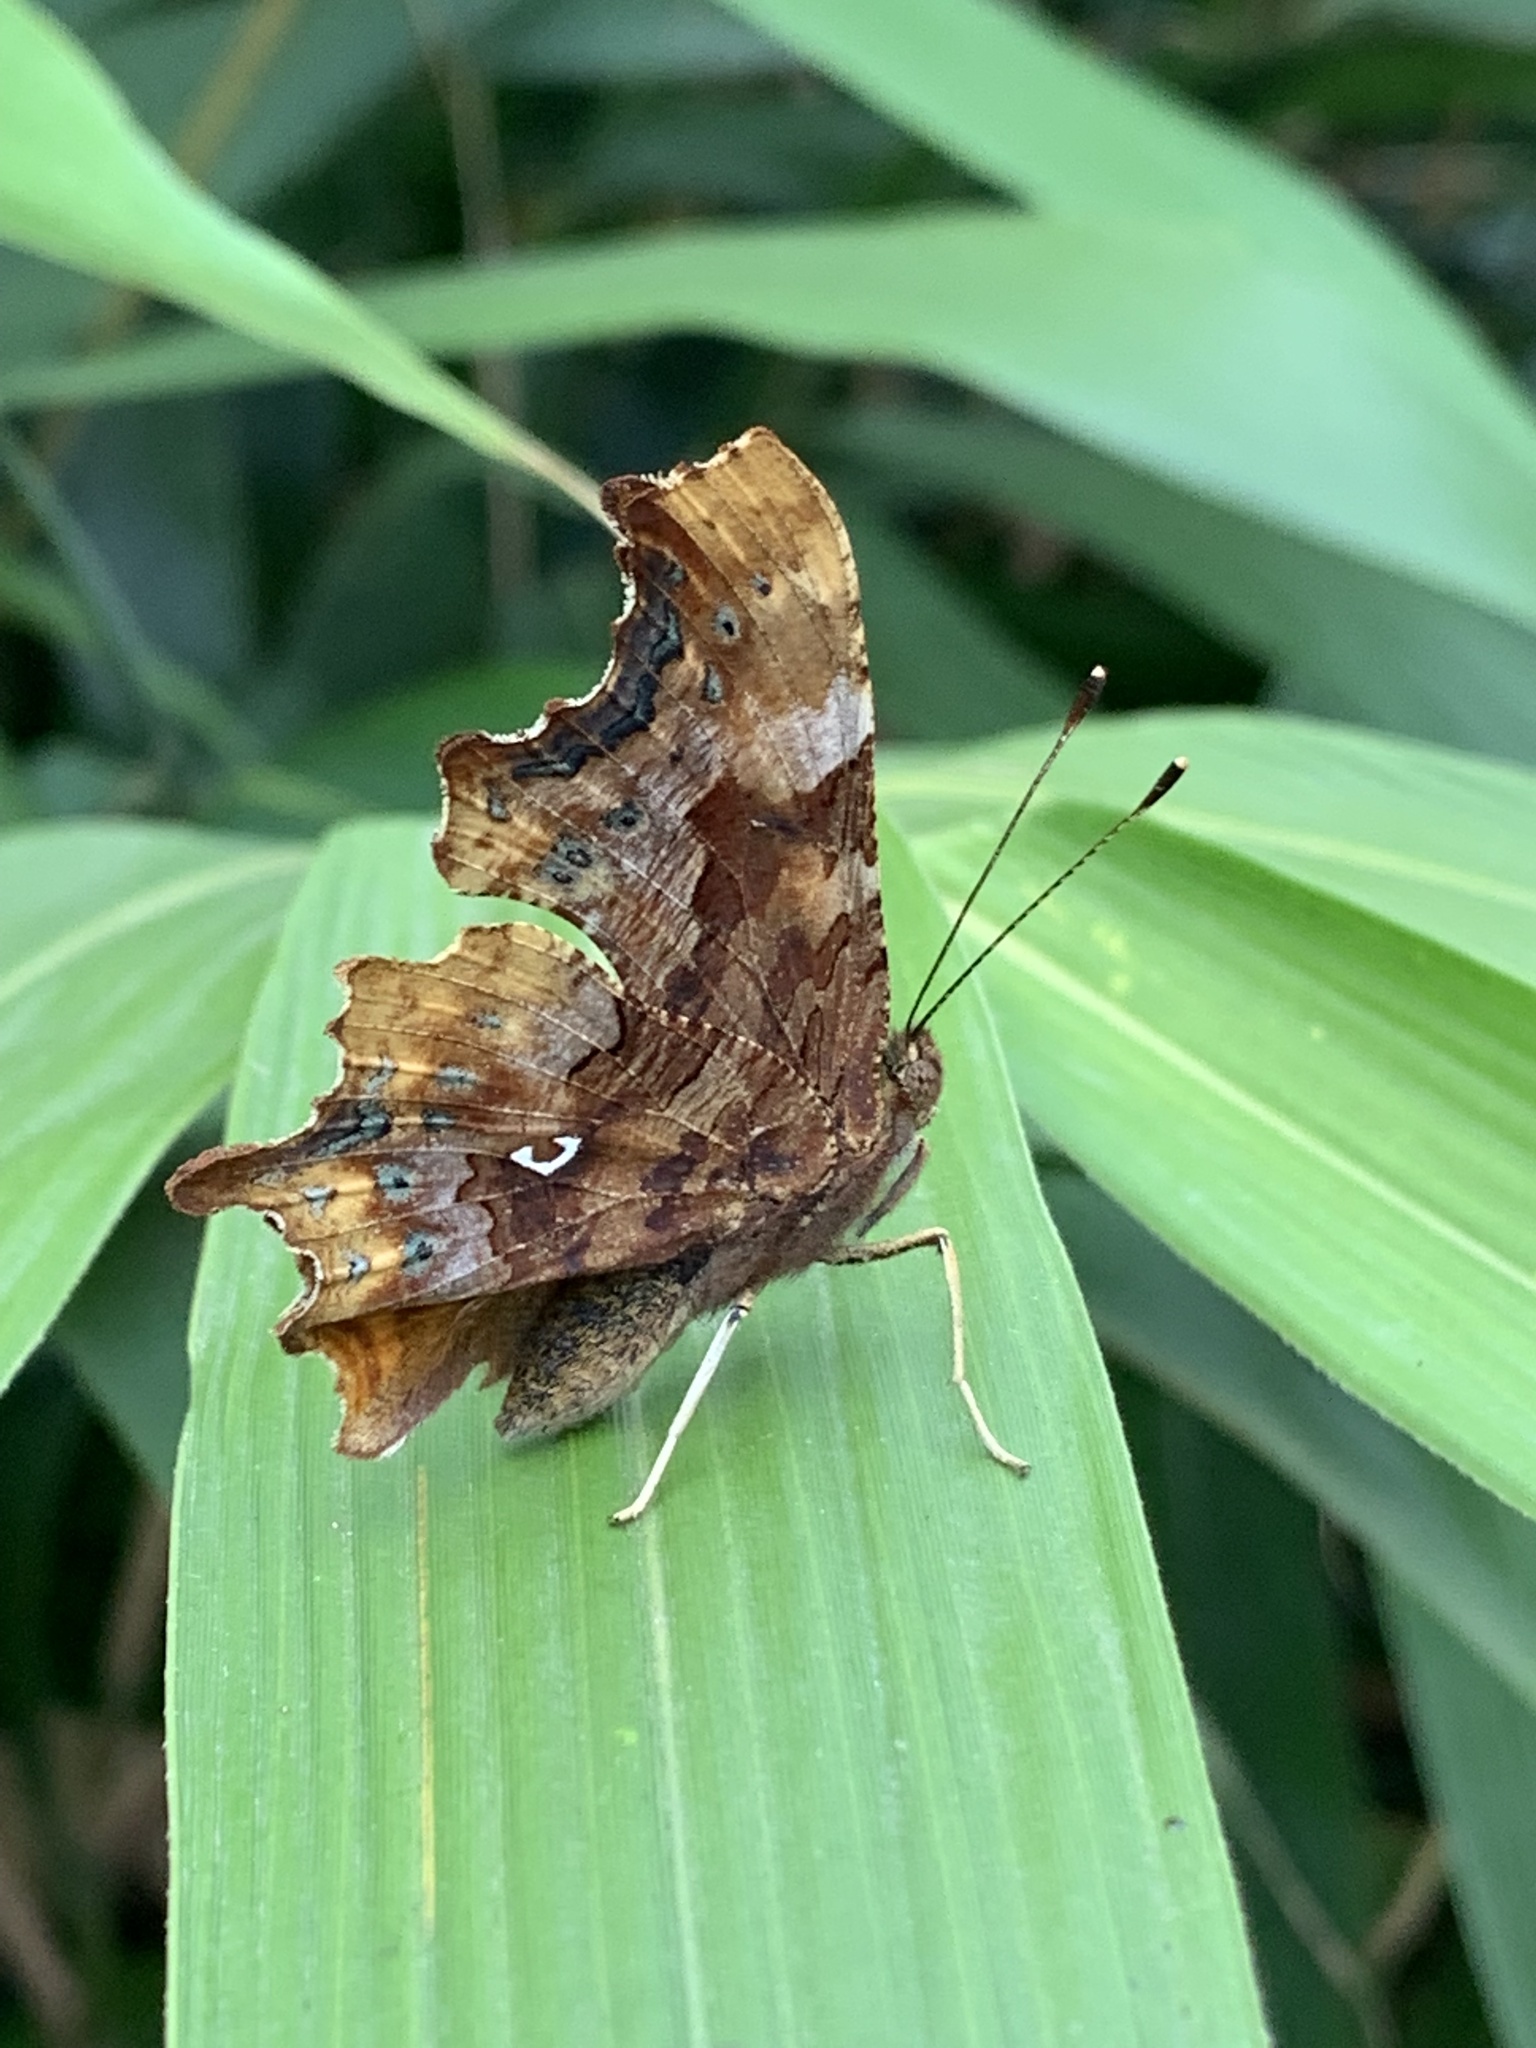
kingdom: Animalia
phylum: Arthropoda
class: Insecta
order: Lepidoptera
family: Nymphalidae
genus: Polygonia
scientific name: Polygonia c-album
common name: Comma
